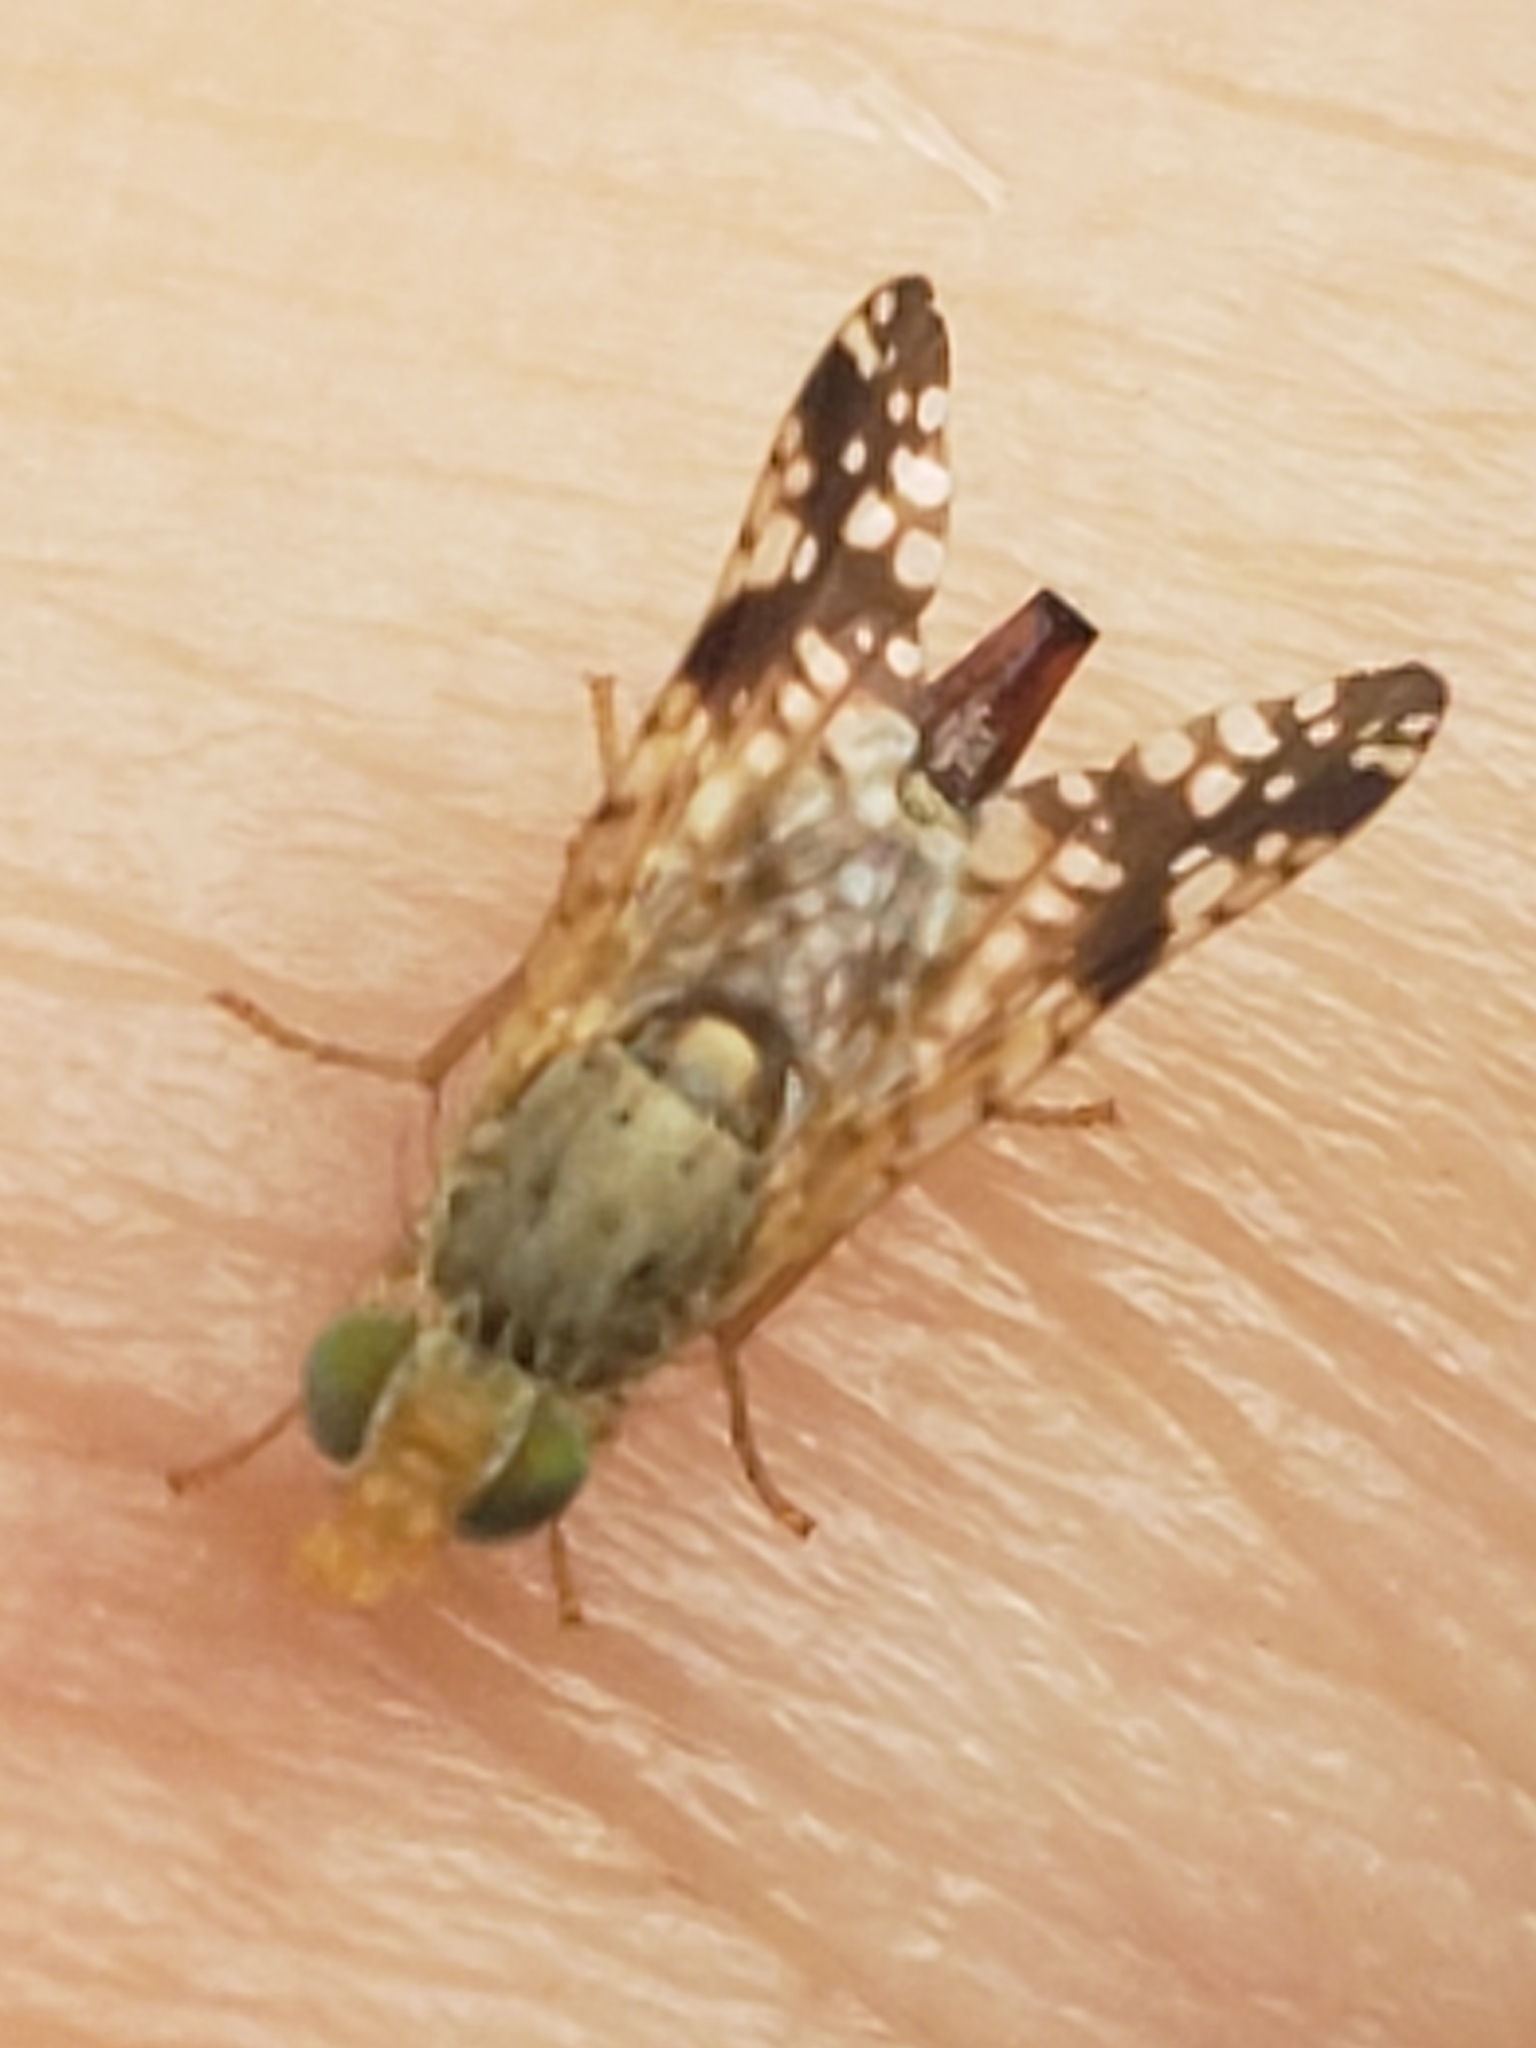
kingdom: Animalia
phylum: Arthropoda
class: Insecta
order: Diptera
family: Tephritidae
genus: Neotephritis
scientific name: Neotephritis finalis
